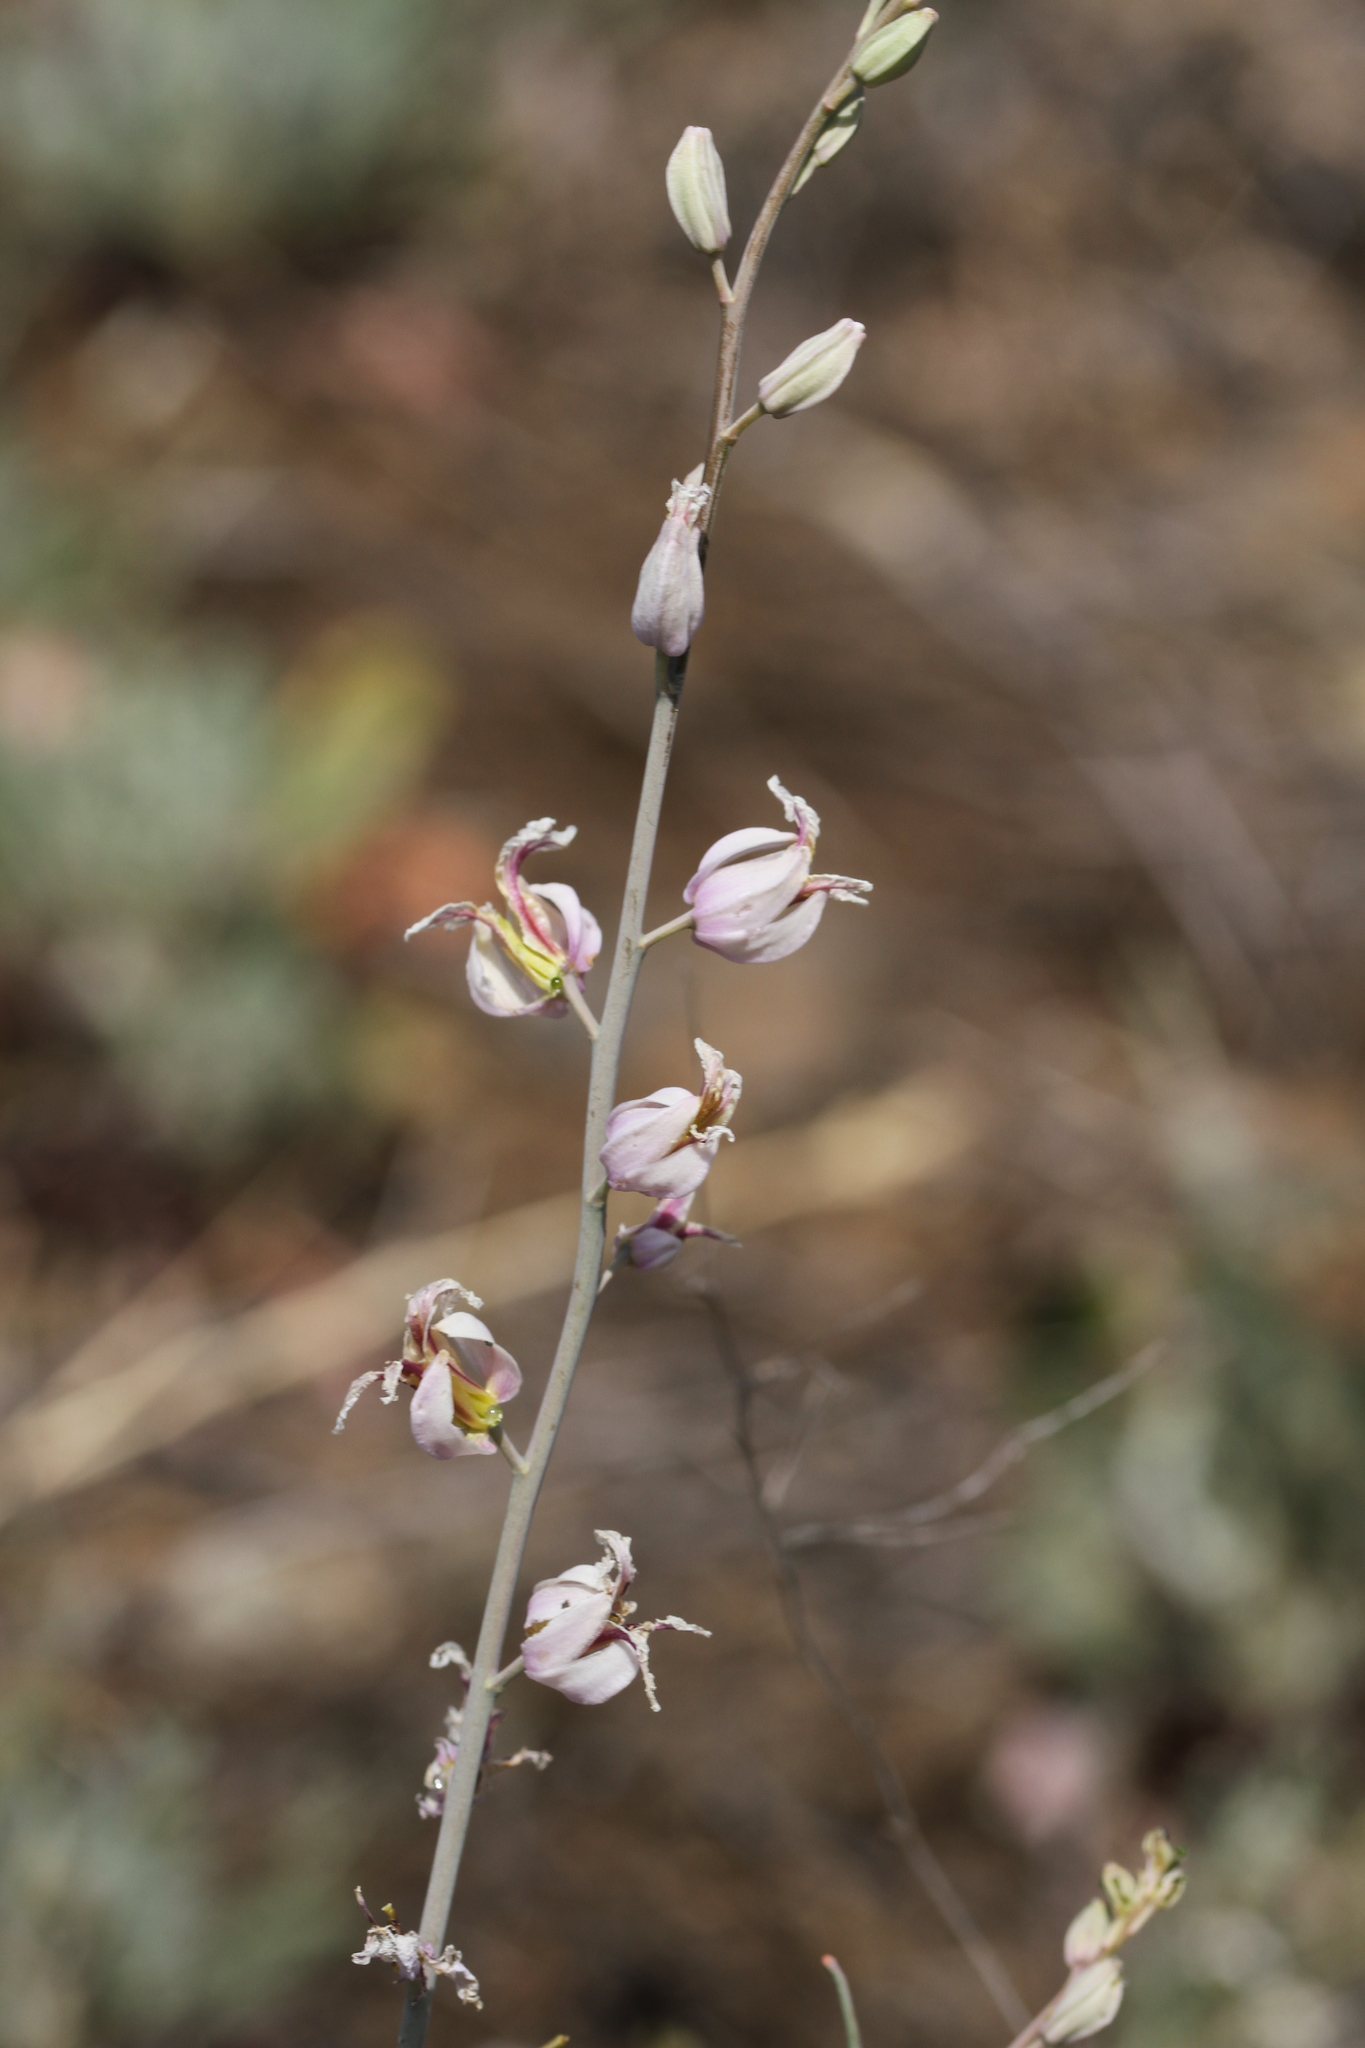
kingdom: Plantae
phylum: Tracheophyta
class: Magnoliopsida
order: Brassicales
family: Brassicaceae
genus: Streptanthus
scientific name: Streptanthus glandulosus
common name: Jewel-flower
